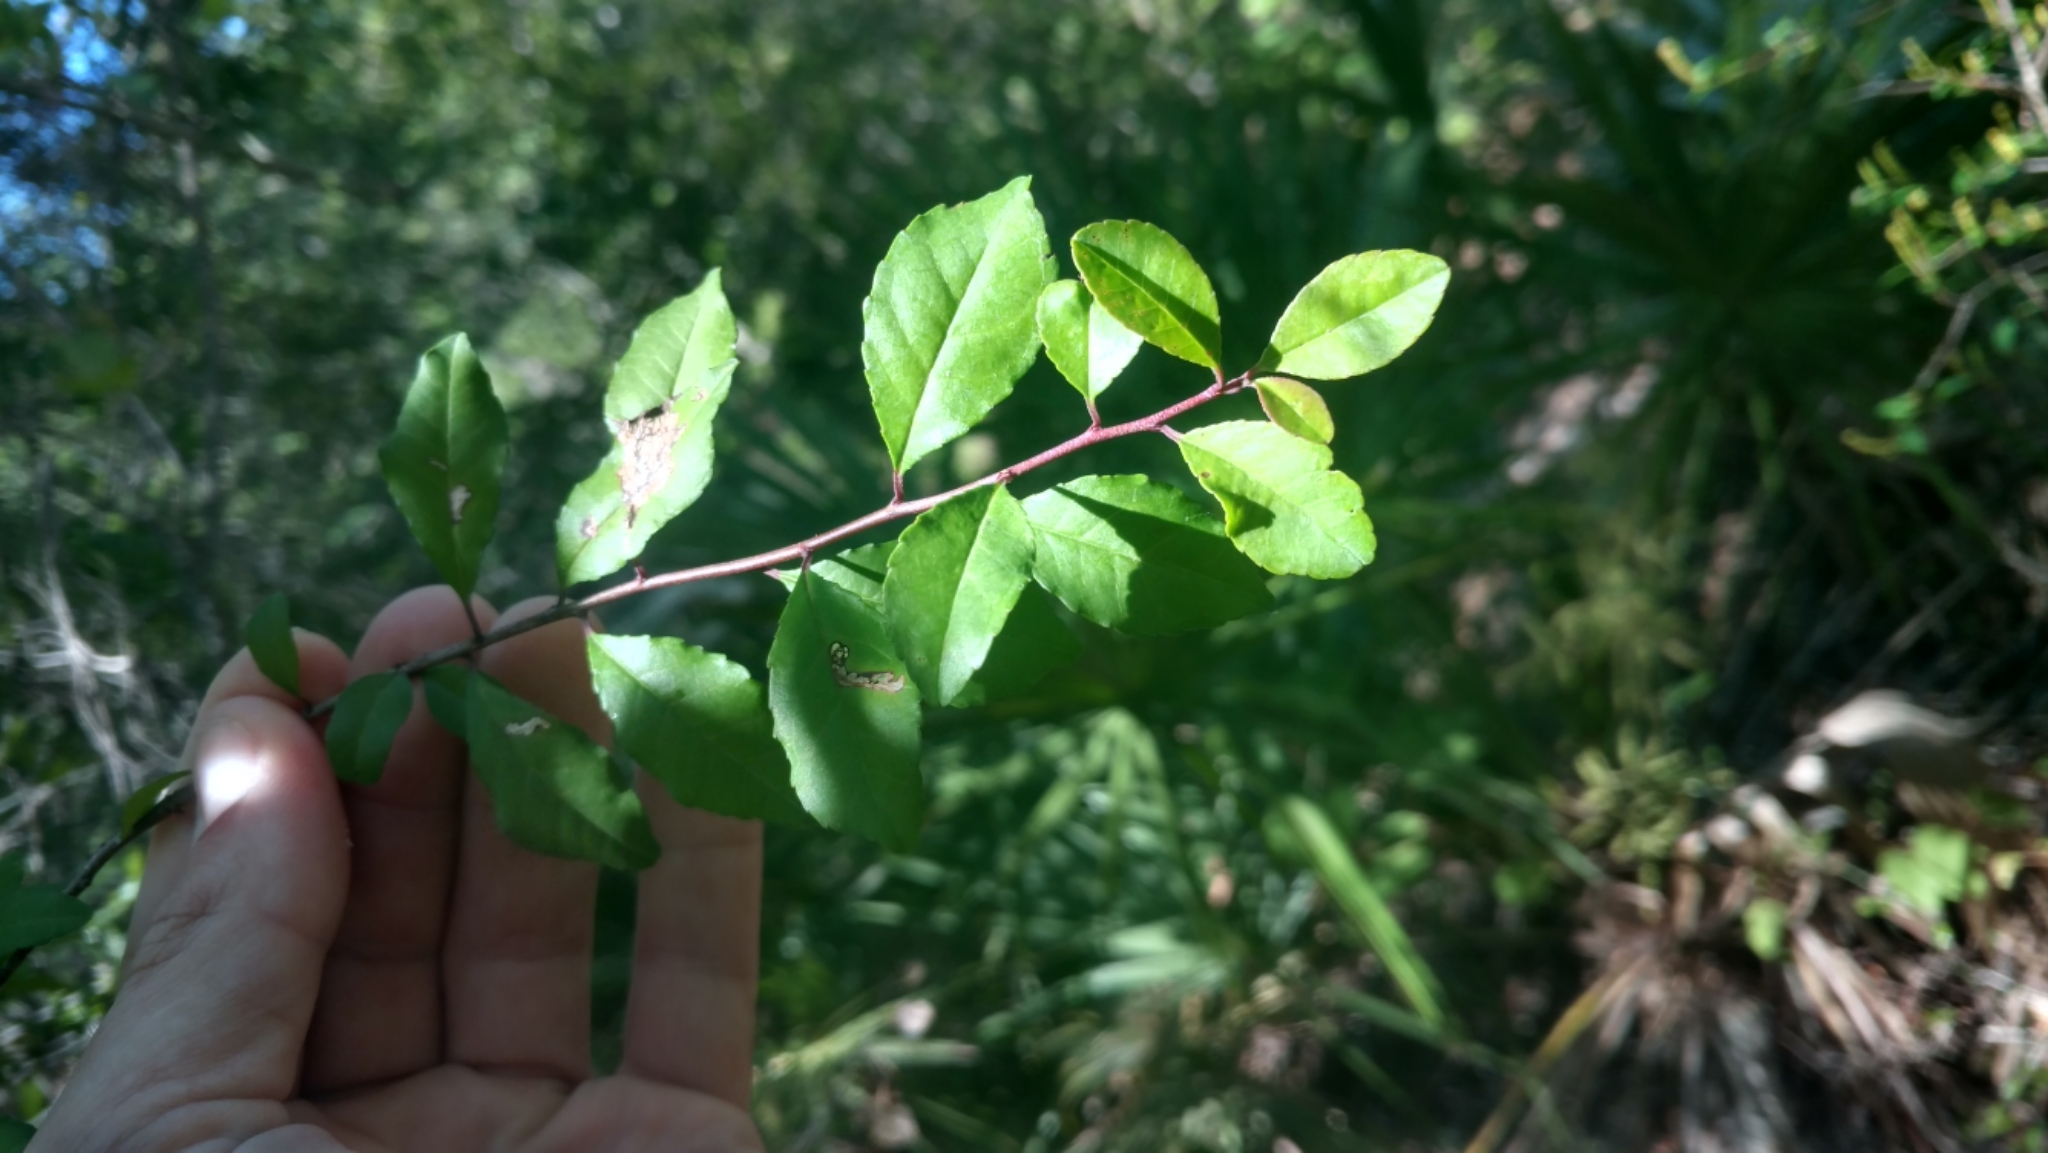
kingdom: Plantae
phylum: Tracheophyta
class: Magnoliopsida
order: Aquifoliales
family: Aquifoliaceae
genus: Ilex
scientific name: Ilex decidua
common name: Possum-haw
